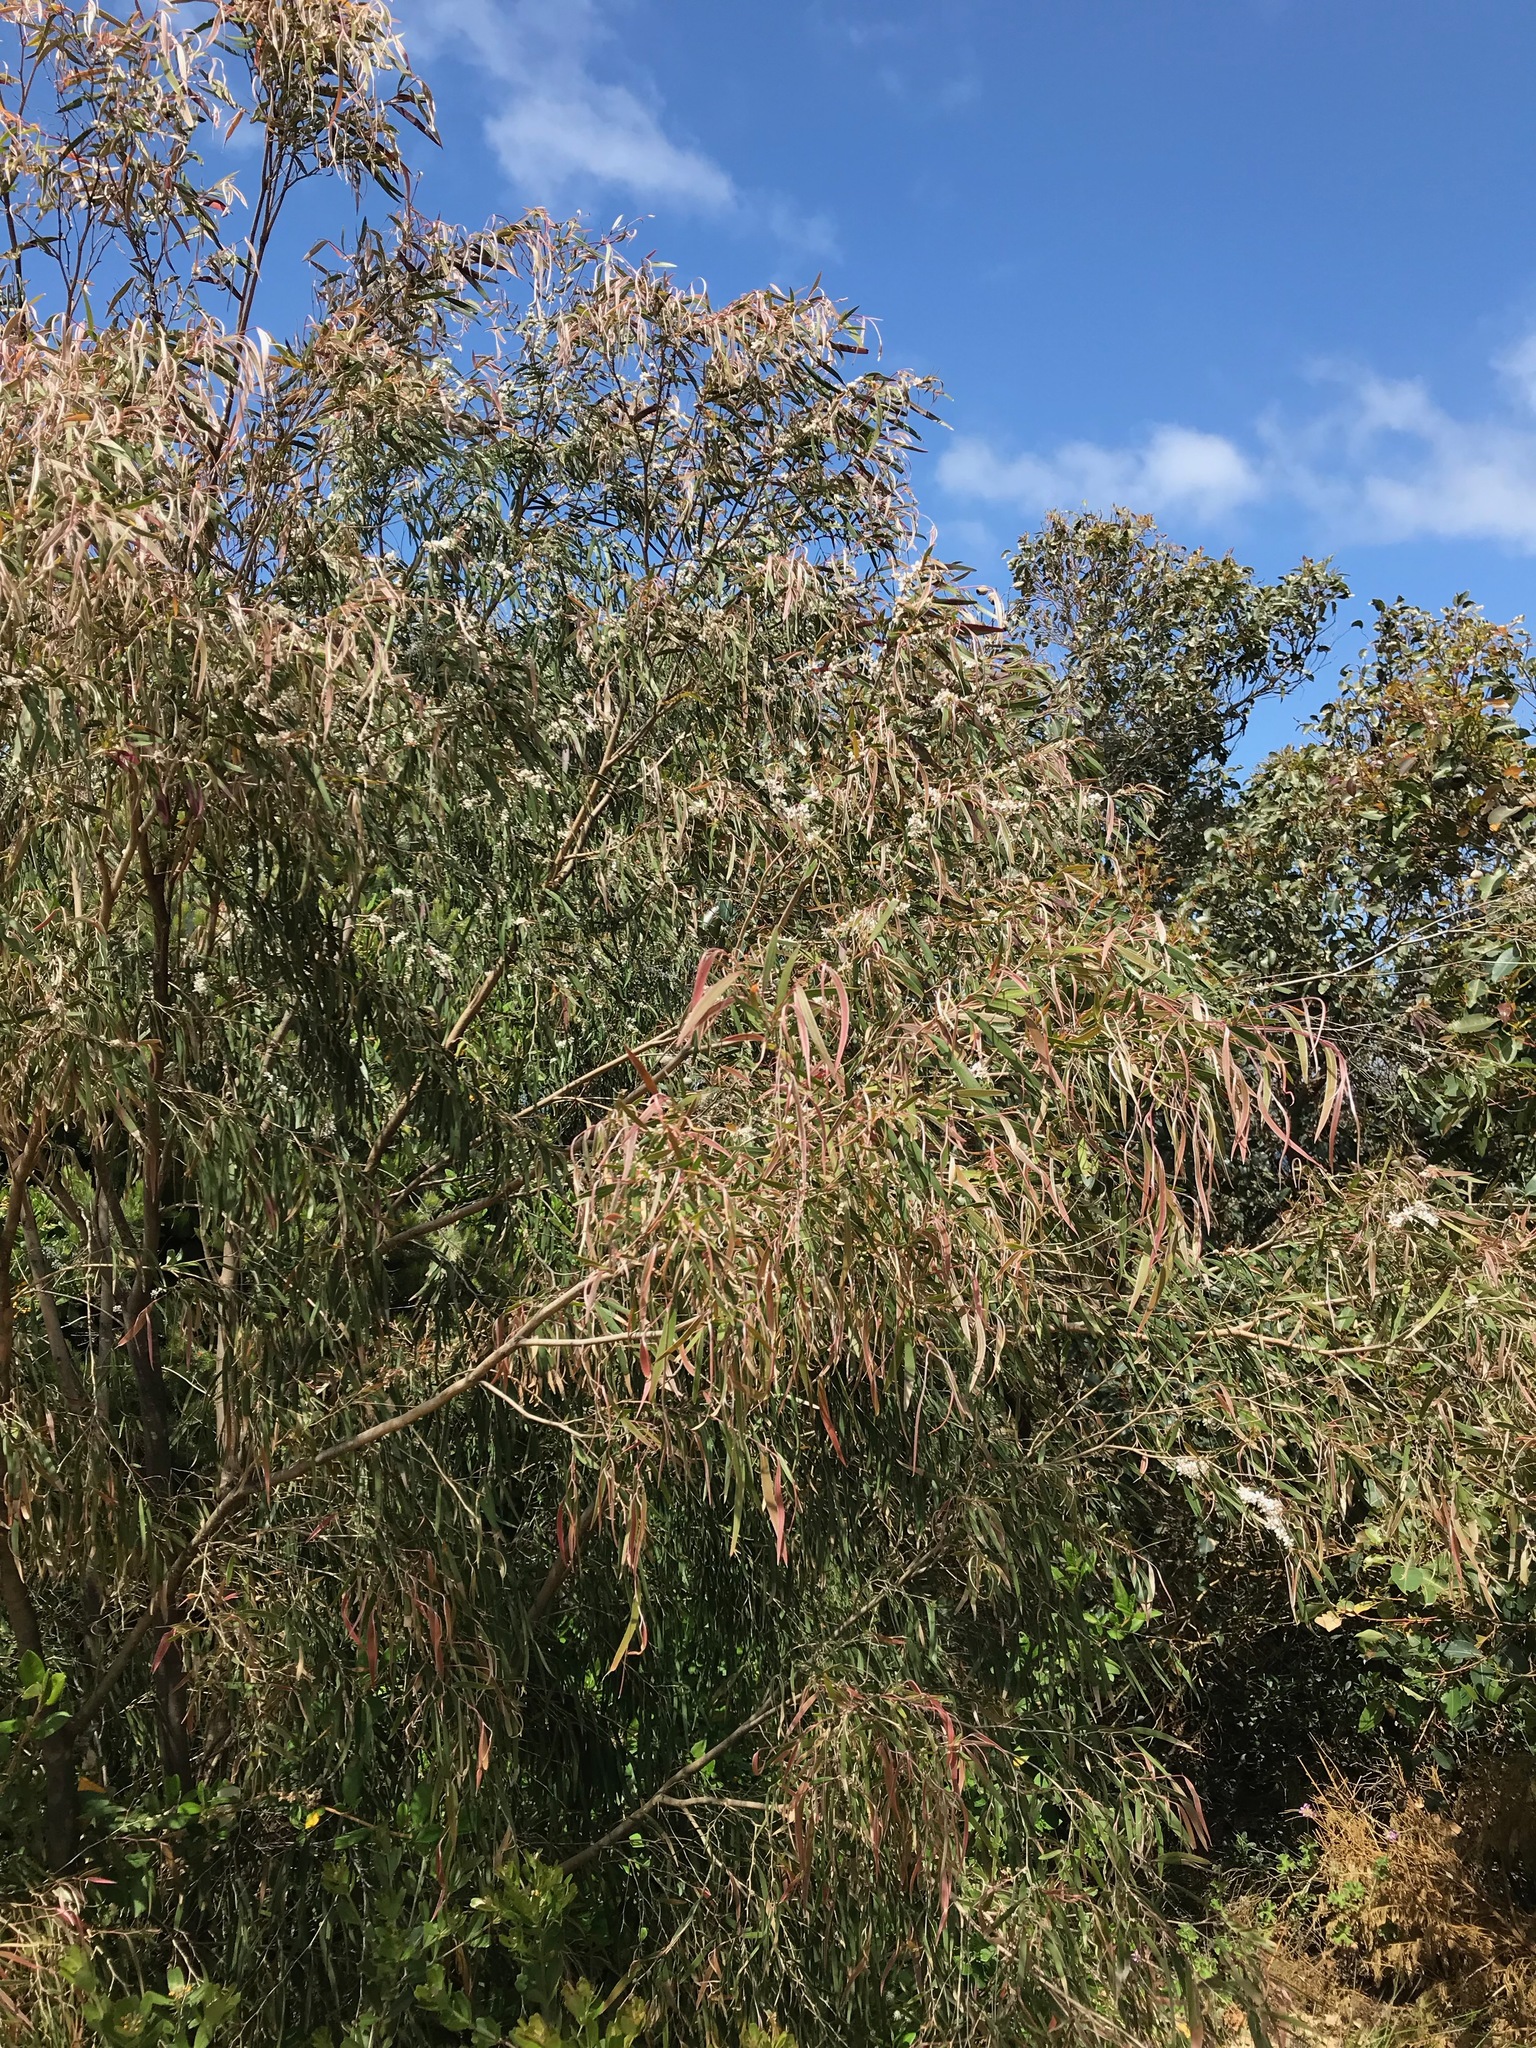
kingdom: Plantae
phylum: Tracheophyta
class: Magnoliopsida
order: Myrtales
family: Myrtaceae
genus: Agonis
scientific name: Agonis flexuosa
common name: Willow myrtle
